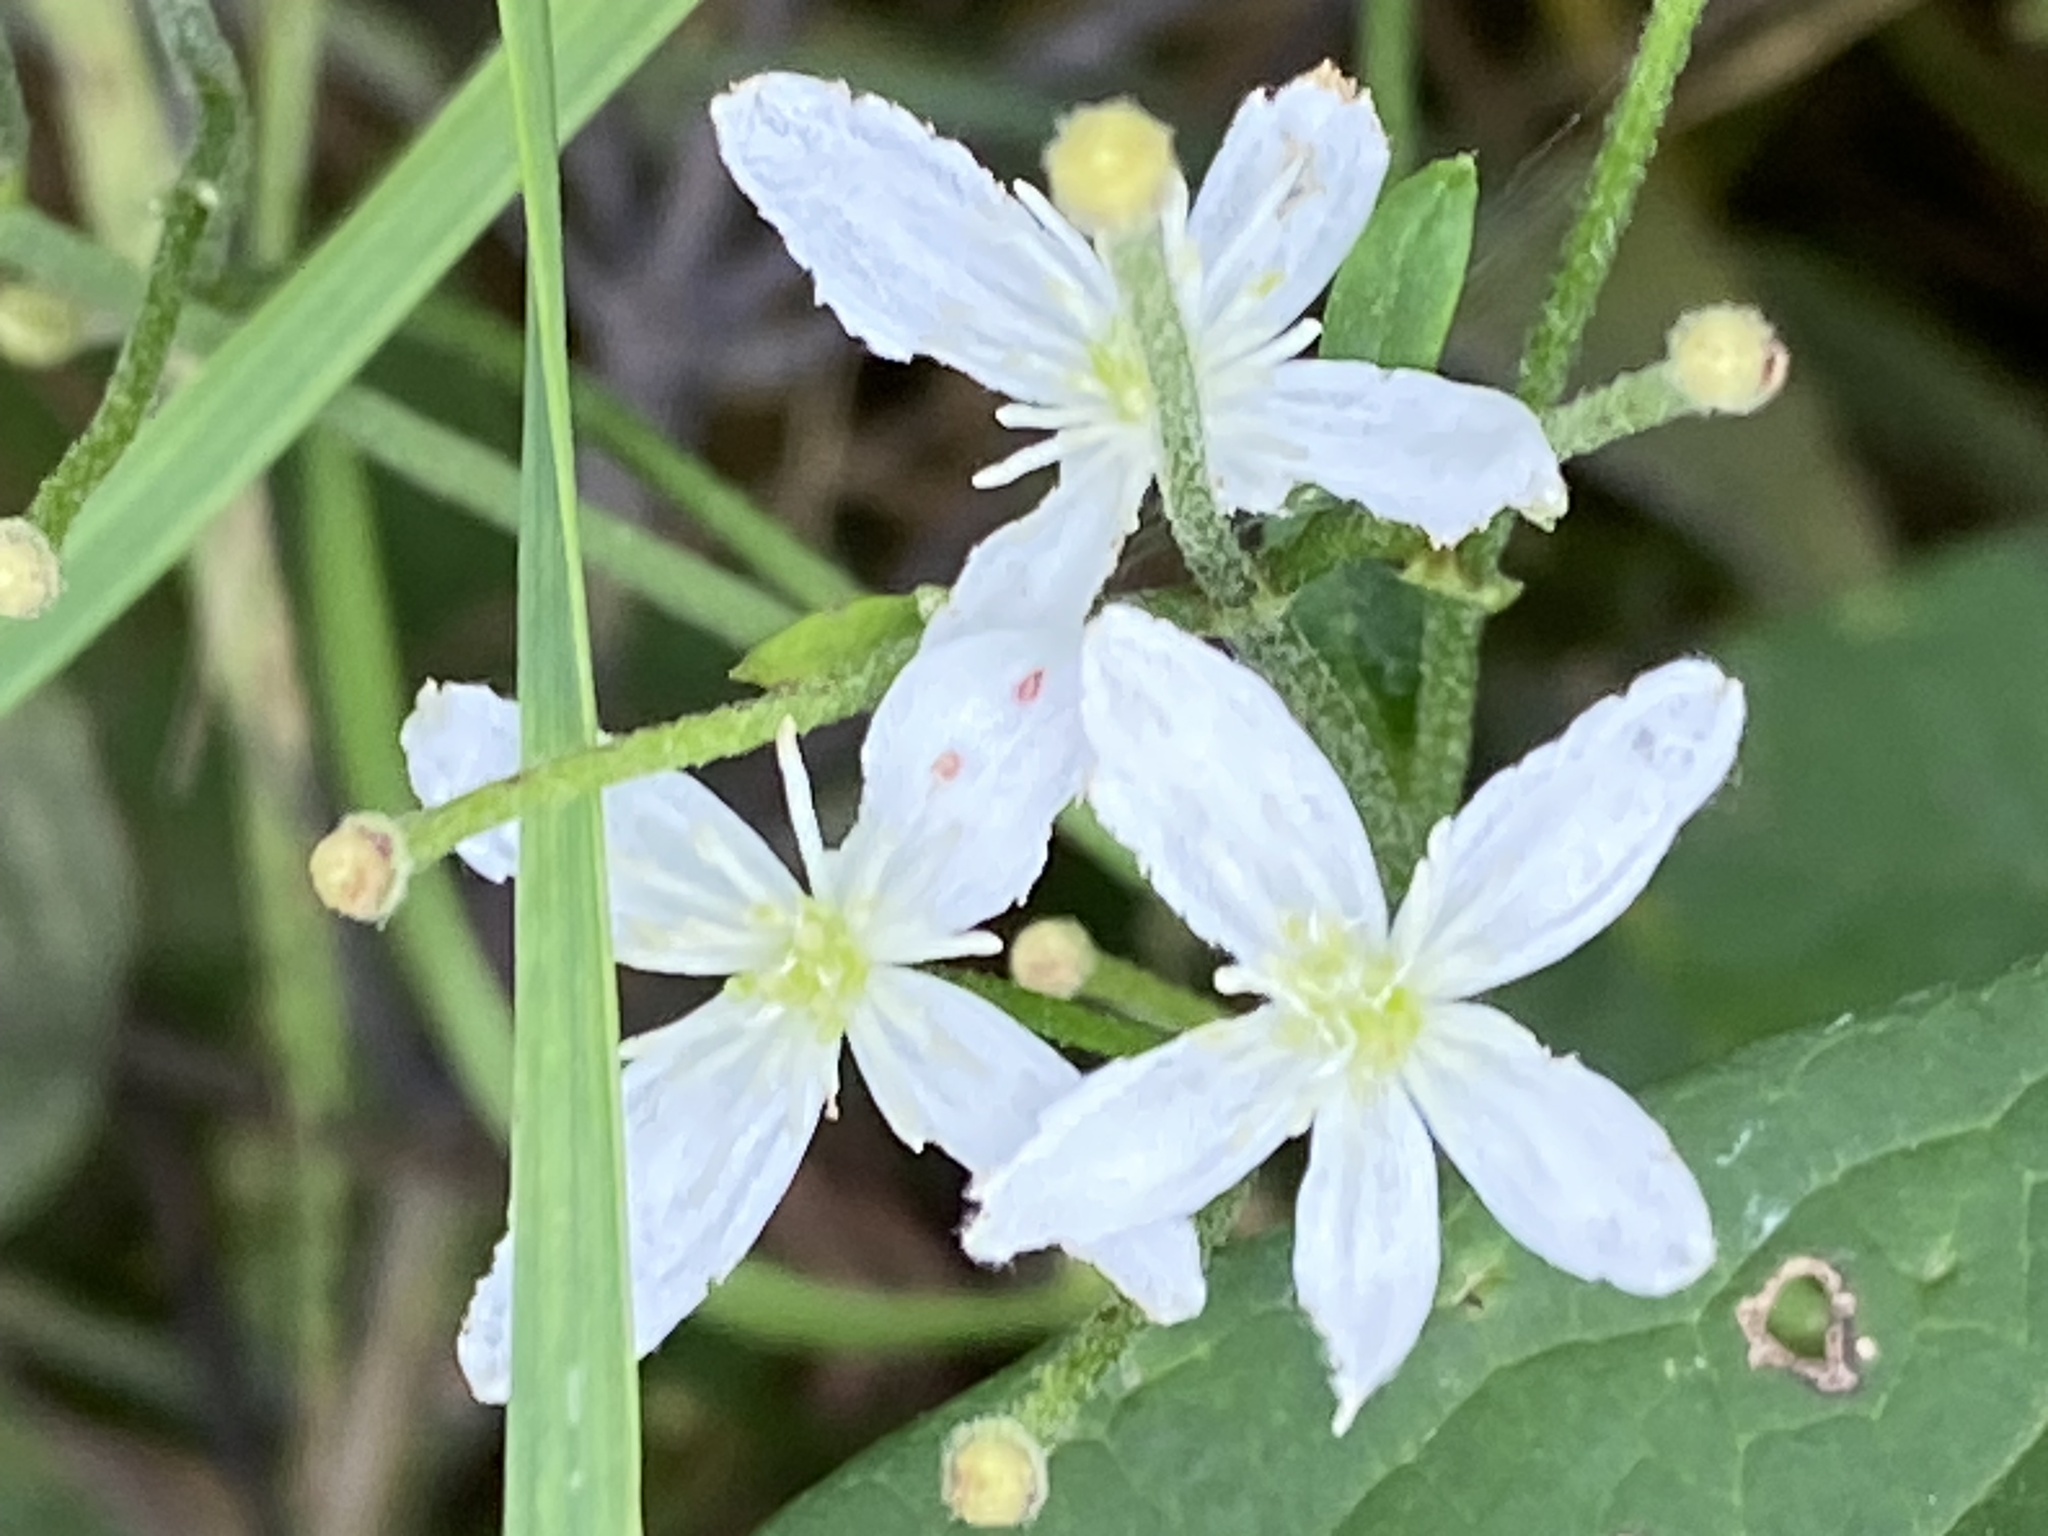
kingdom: Plantae
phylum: Tracheophyta
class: Magnoliopsida
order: Ranunculales
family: Ranunculaceae
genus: Clematis
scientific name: Clematis terniflora
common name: Sweet autumn clematis
